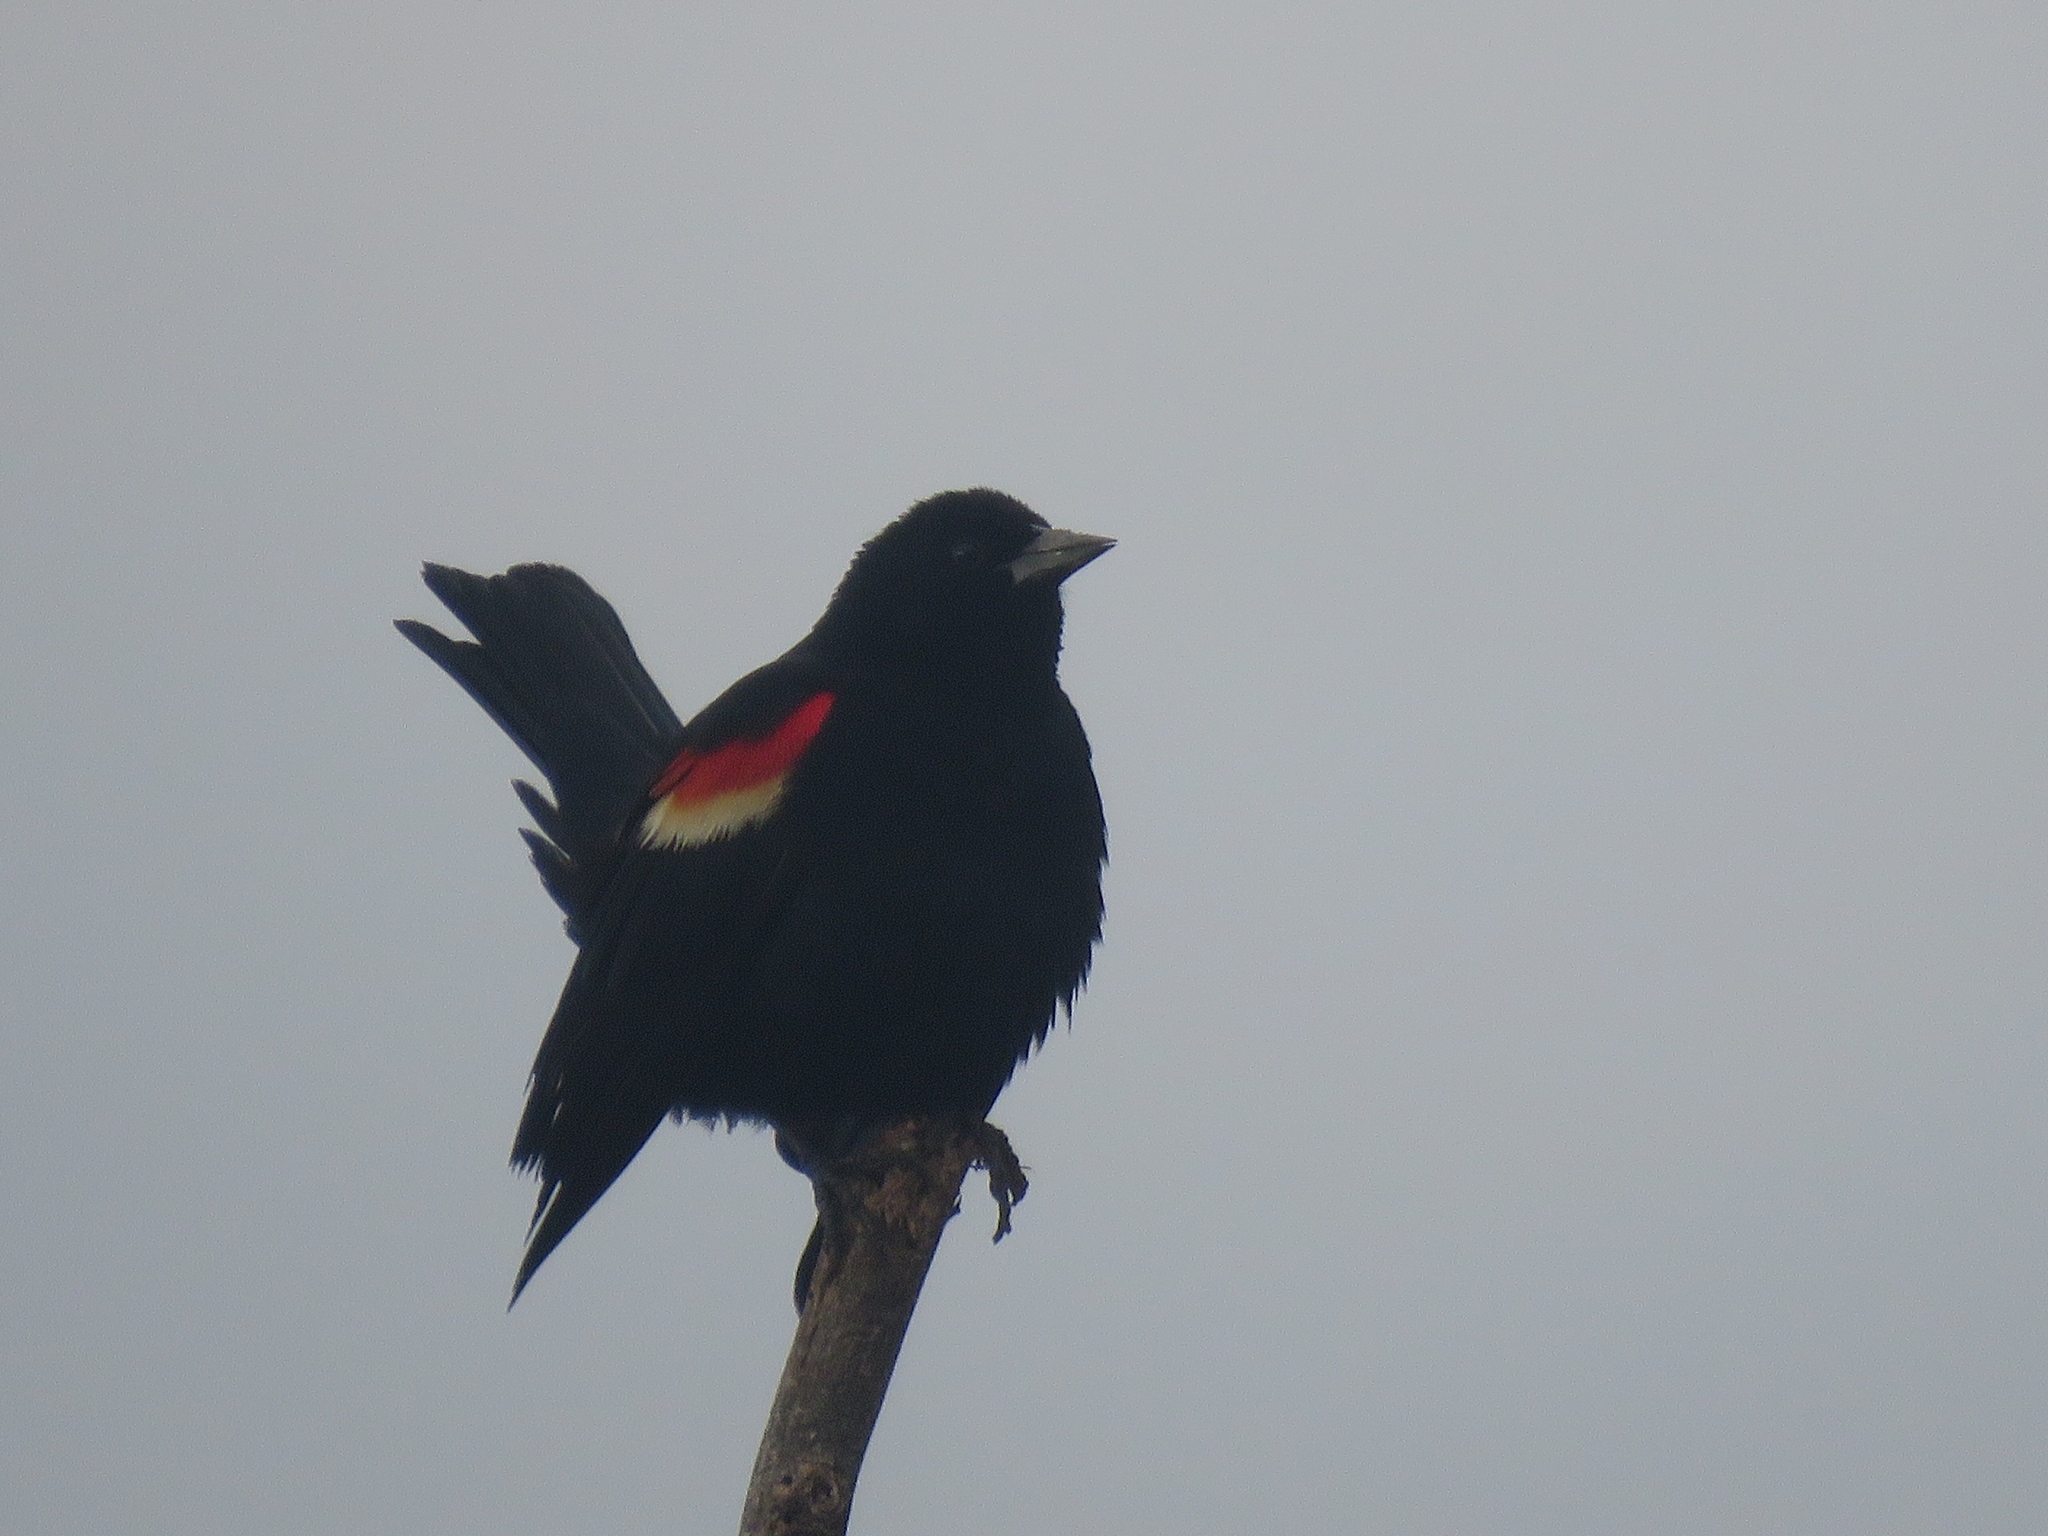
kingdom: Animalia
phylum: Chordata
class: Aves
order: Passeriformes
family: Icteridae
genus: Agelaius
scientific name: Agelaius phoeniceus
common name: Red-winged blackbird
